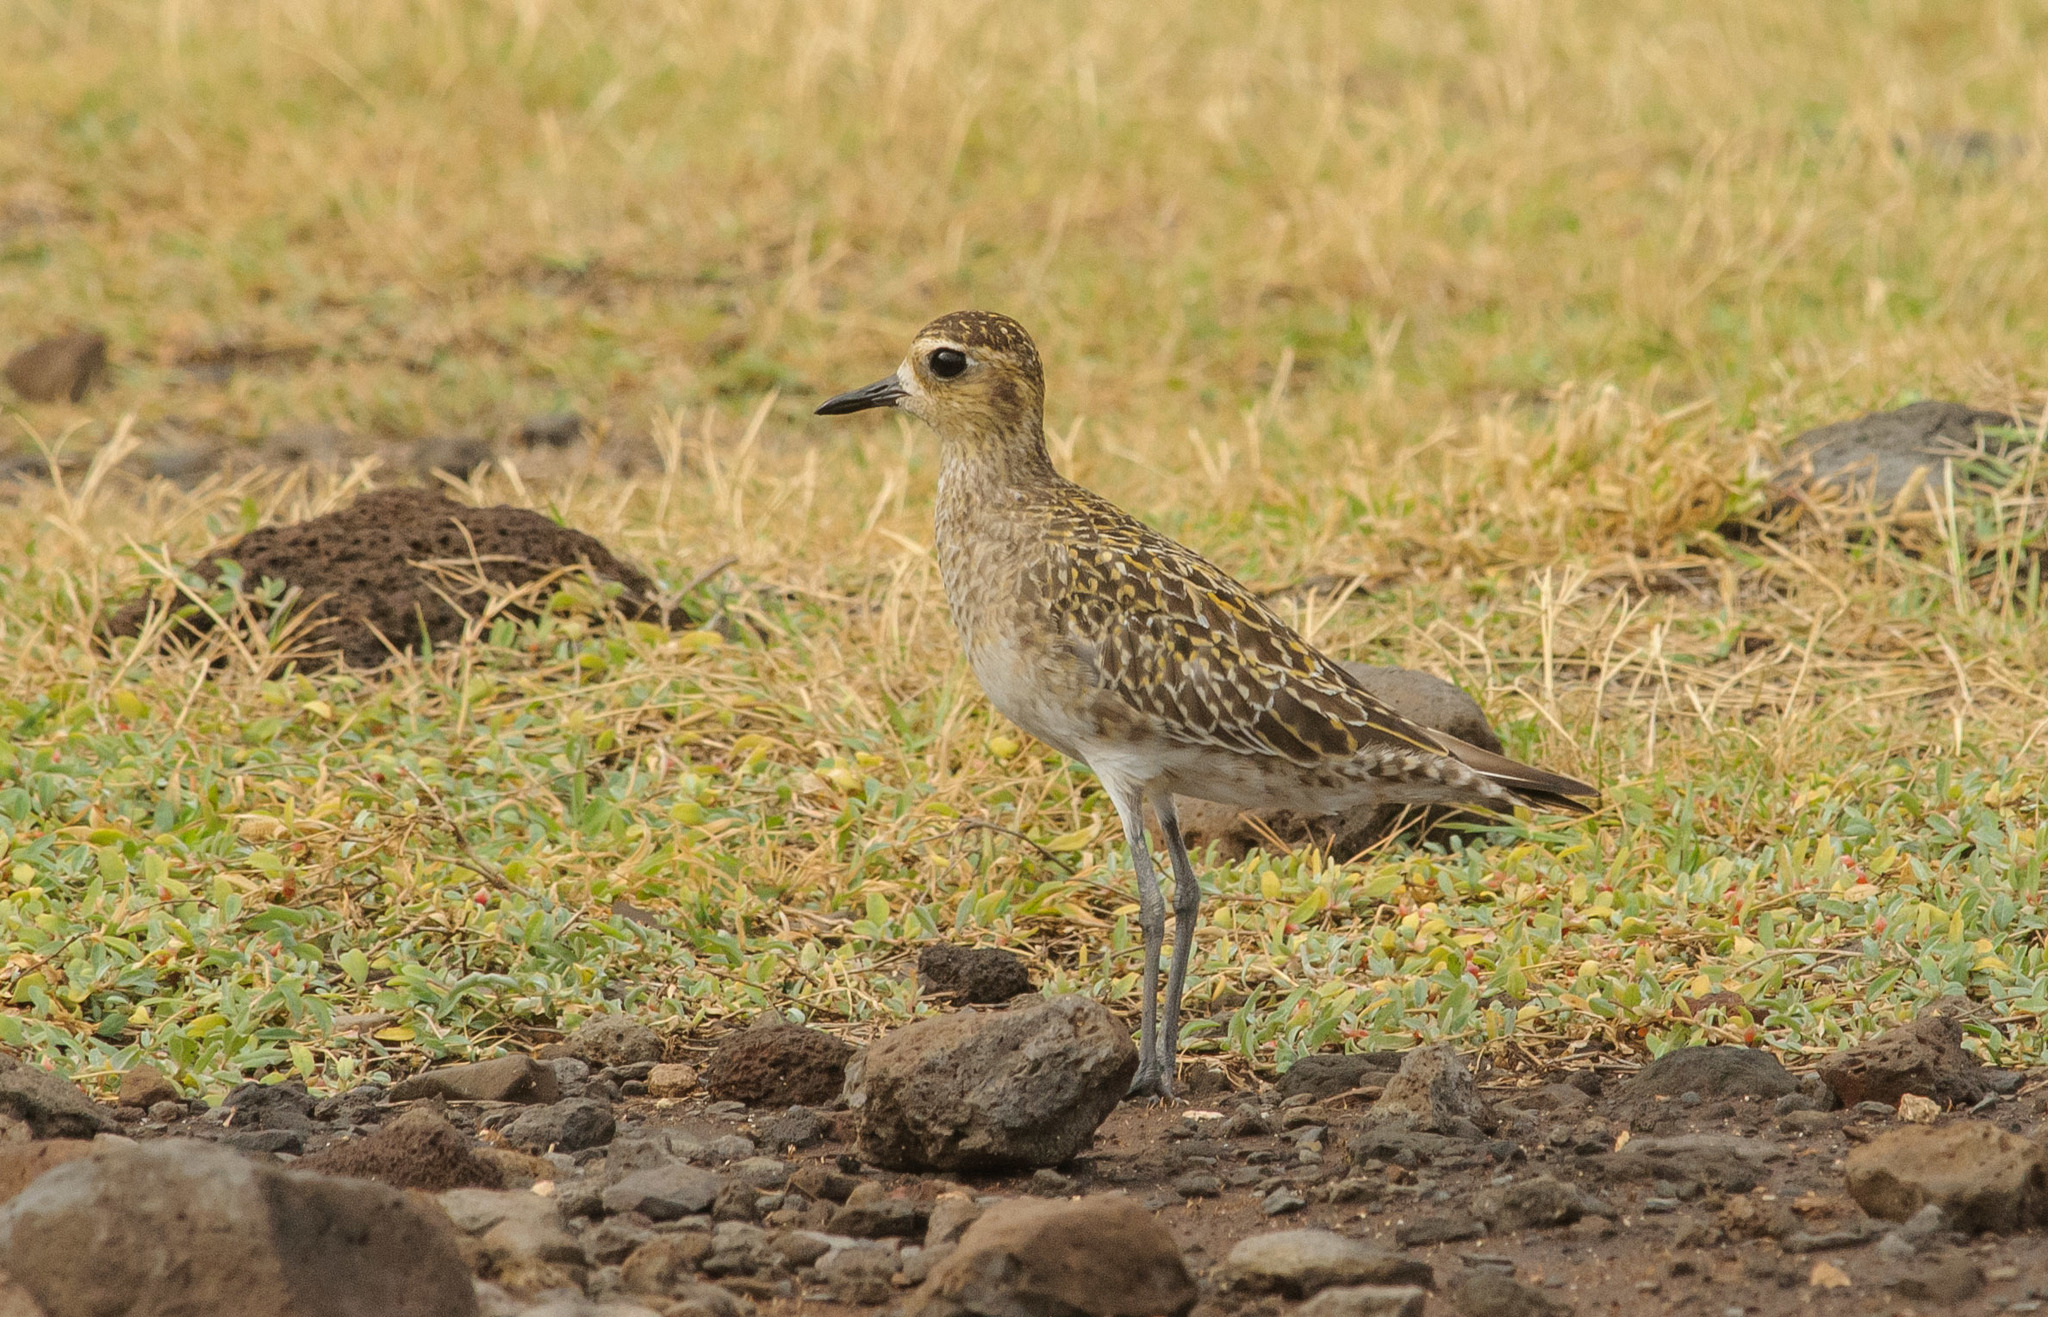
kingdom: Animalia
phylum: Chordata
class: Aves
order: Charadriiformes
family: Charadriidae
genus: Pluvialis
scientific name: Pluvialis fulva
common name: Pacific golden plover
